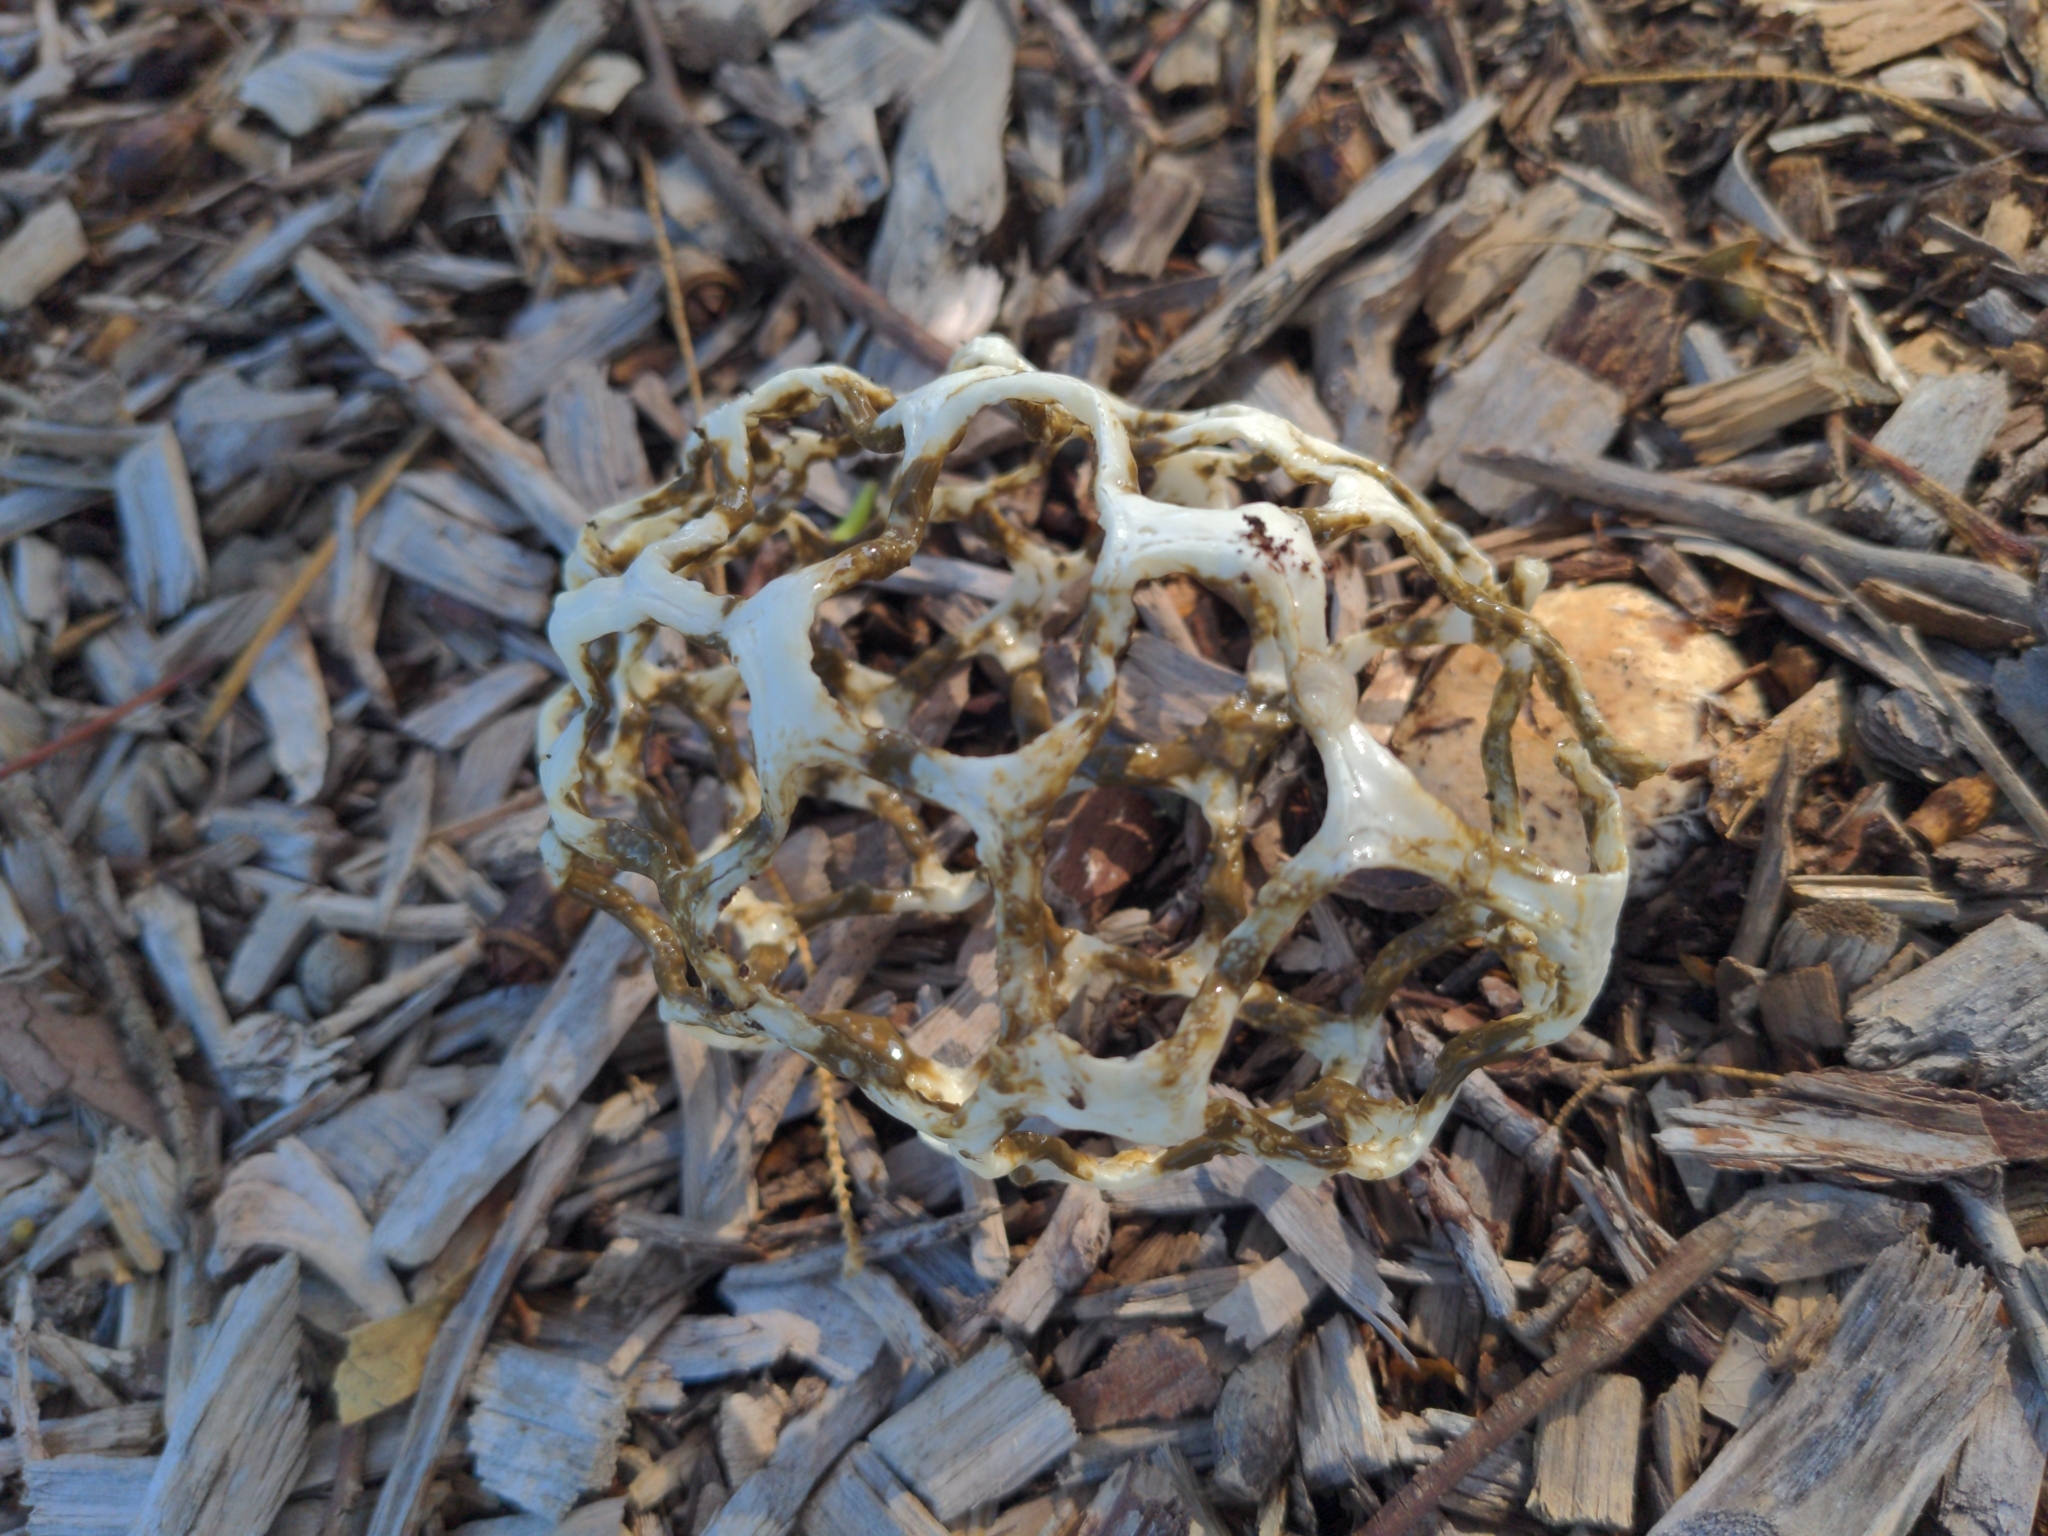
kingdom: Fungi
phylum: Basidiomycota
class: Agaricomycetes
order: Phallales
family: Phallaceae
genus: Ileodictyon
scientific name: Ileodictyon gracile
